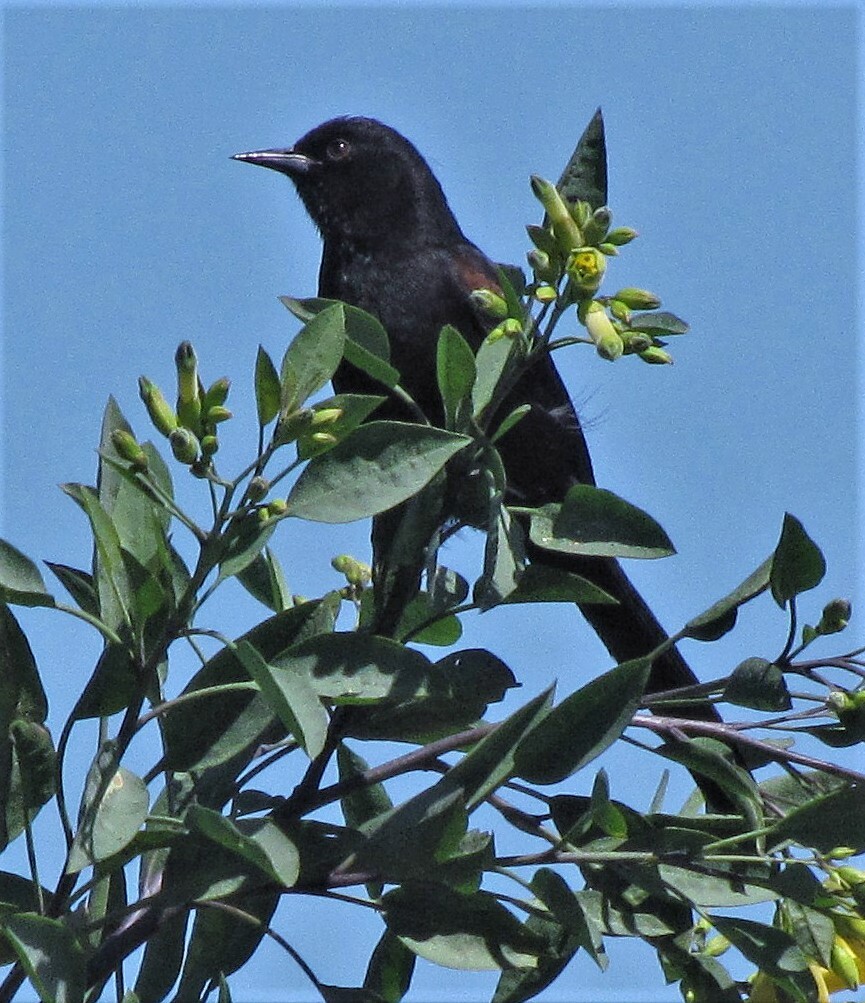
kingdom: Animalia
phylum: Chordata
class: Aves
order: Passeriformes
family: Icteridae
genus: Icterus
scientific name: Icterus cayanensis
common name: Epaulet oriole
